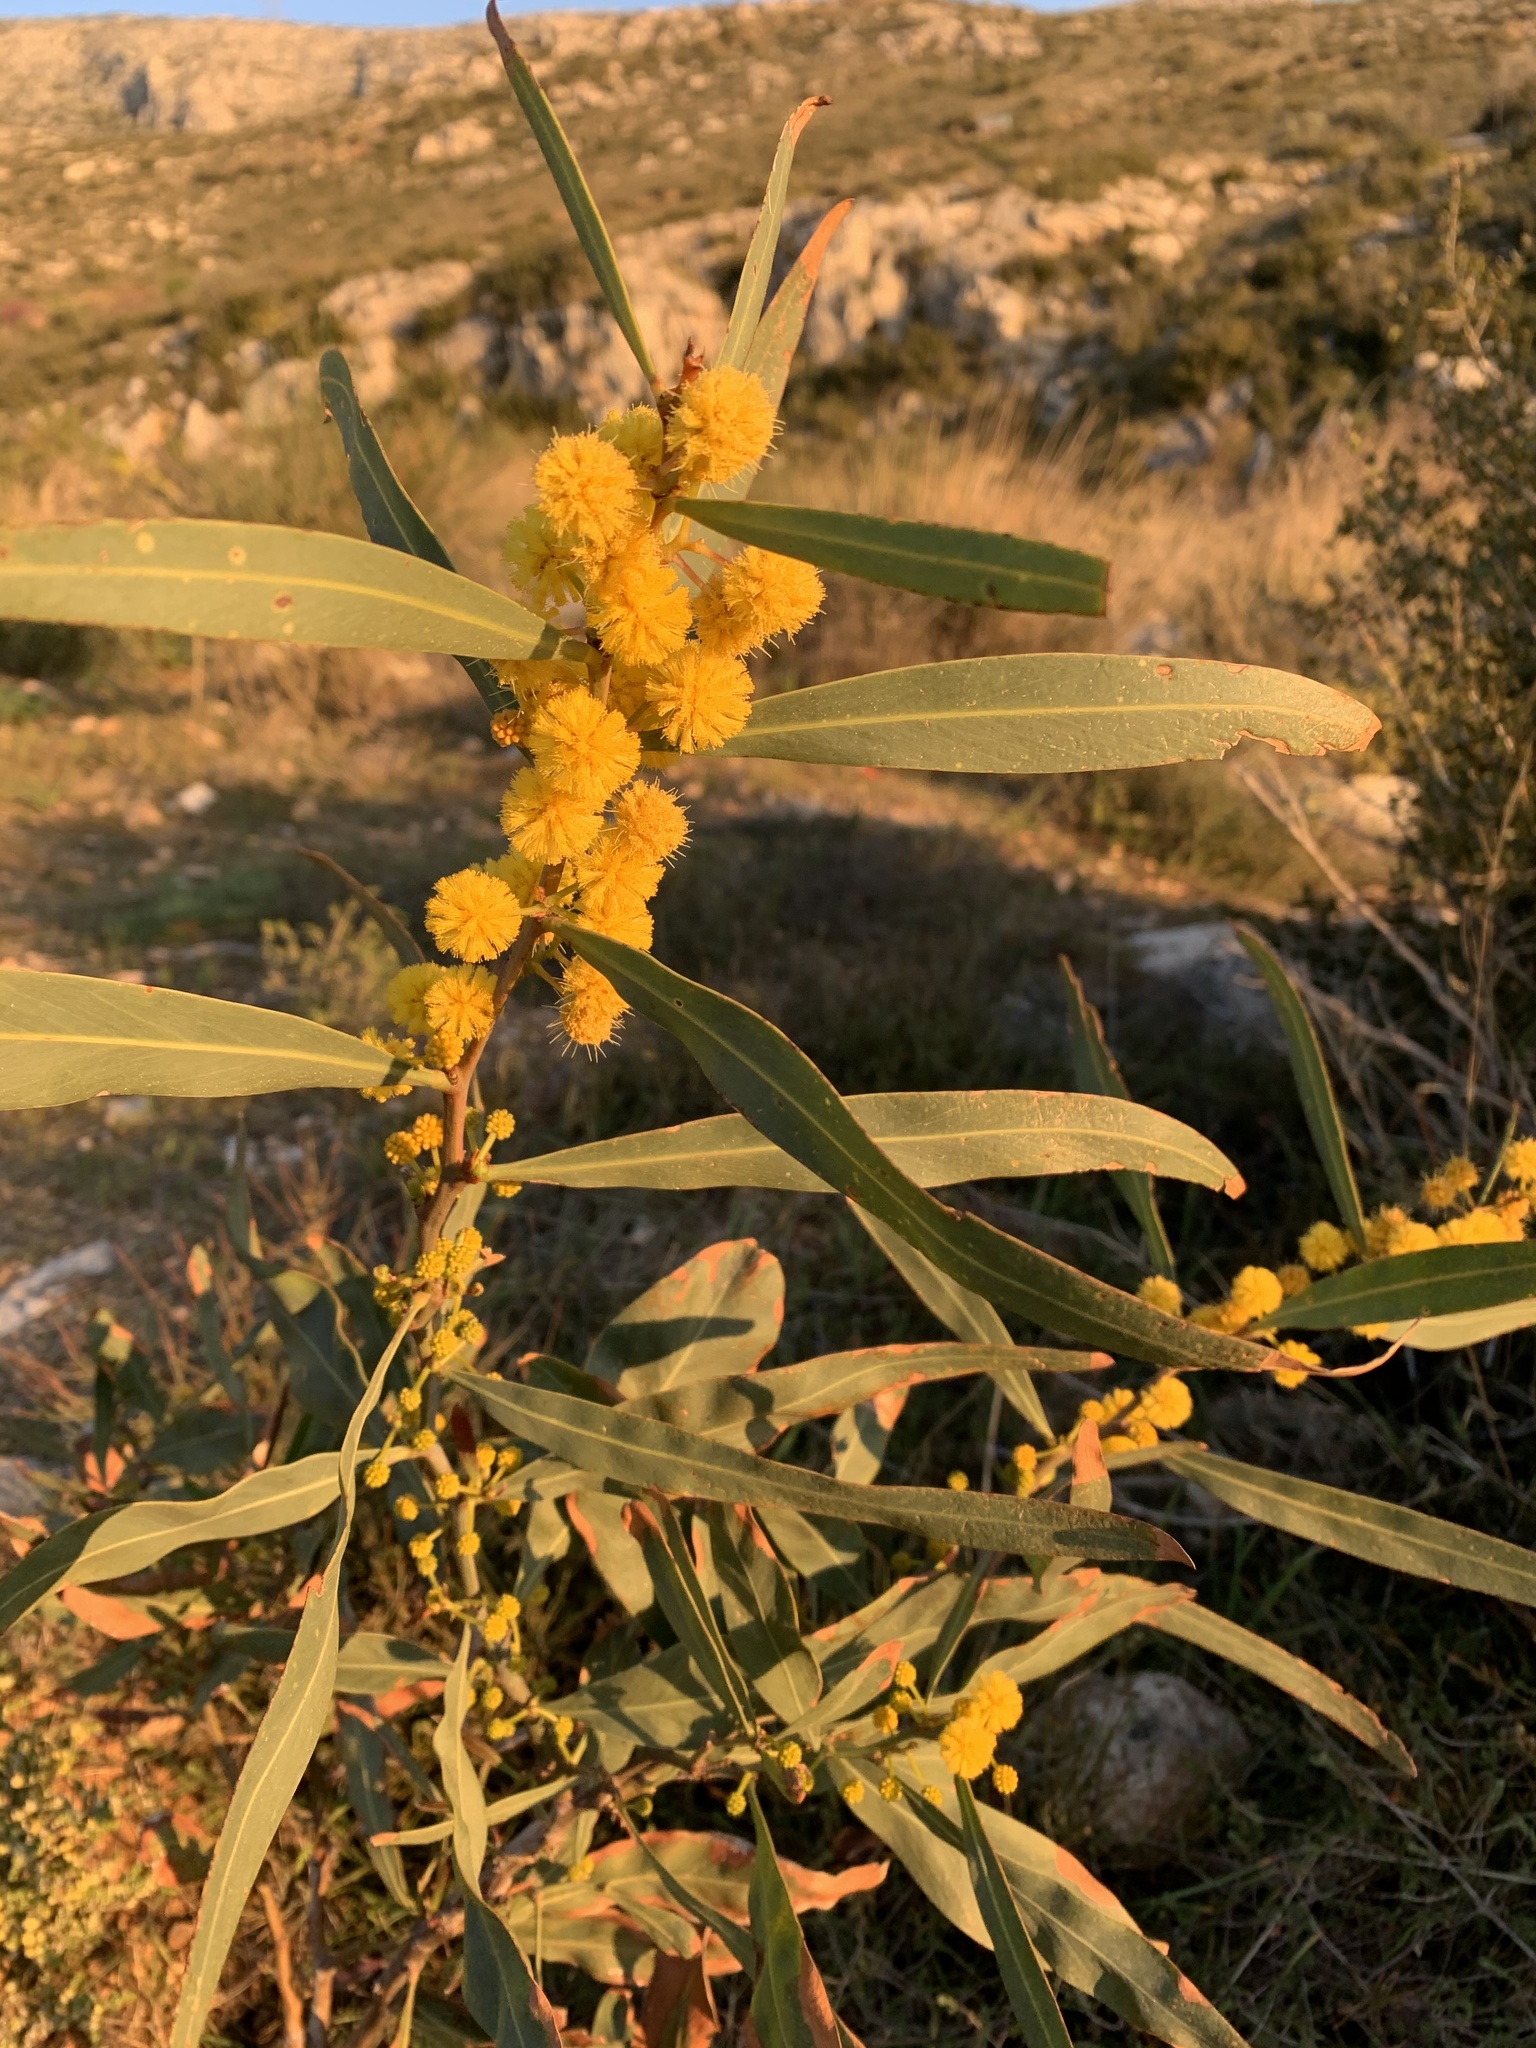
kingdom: Plantae
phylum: Tracheophyta
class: Magnoliopsida
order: Fabales
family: Fabaceae
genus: Acacia
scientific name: Acacia saligna
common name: Orange wattle
